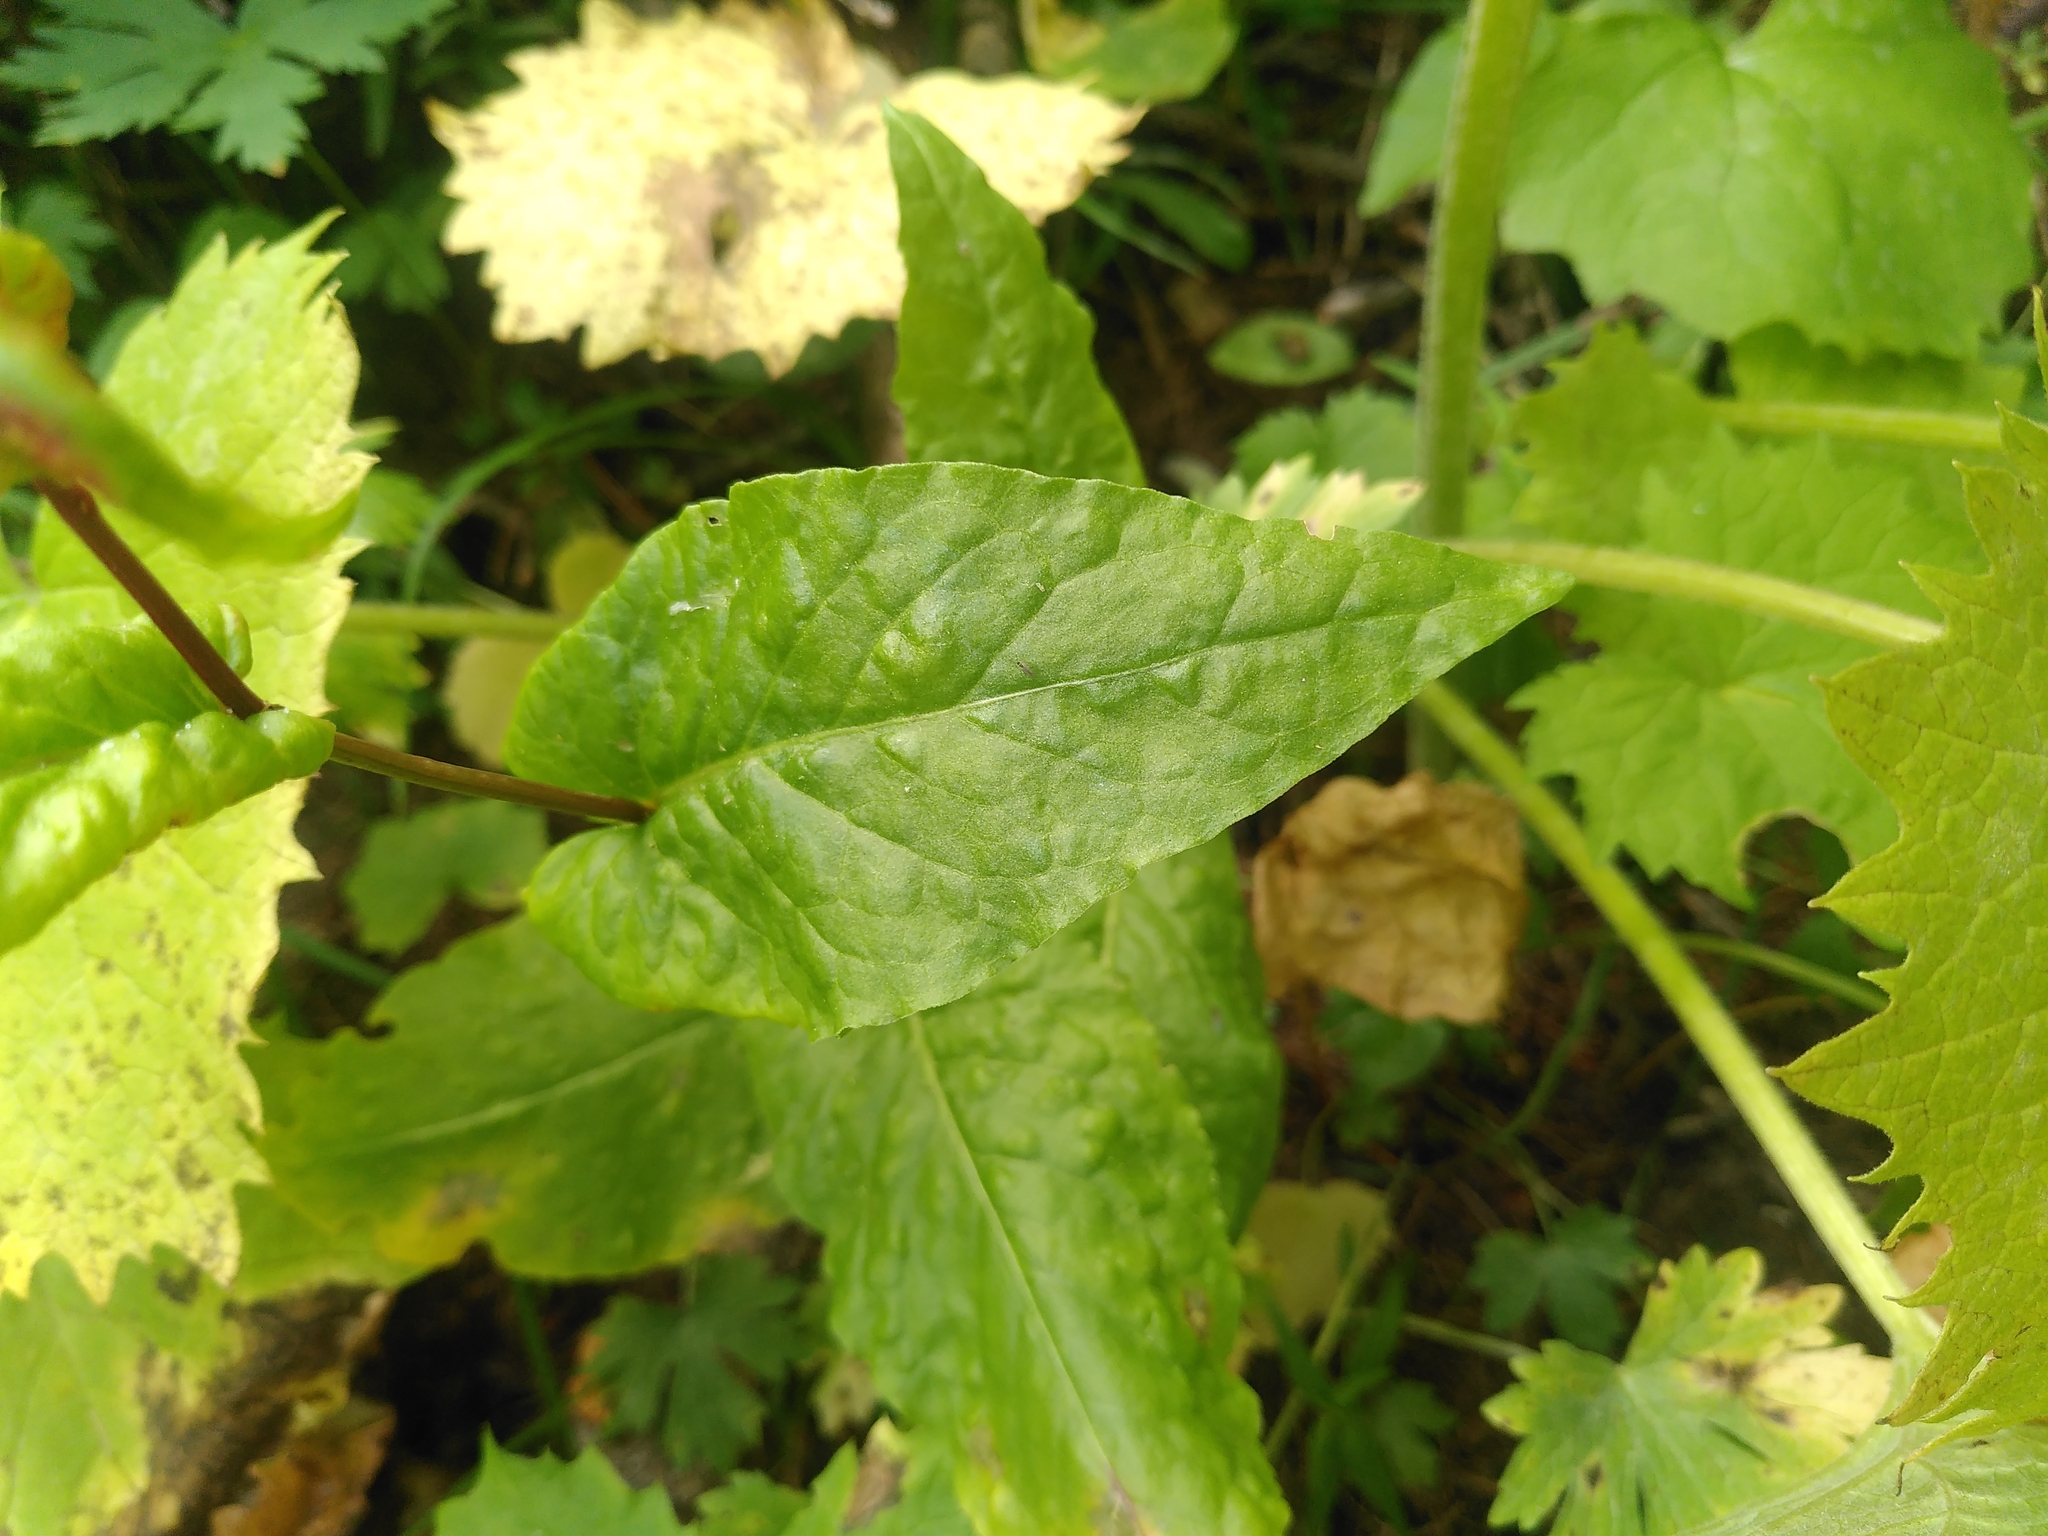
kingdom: Plantae
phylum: Tracheophyta
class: Magnoliopsida
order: Caryophyllales
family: Polygonaceae
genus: Rumex
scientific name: Rumex alpinus
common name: Alpine dock
